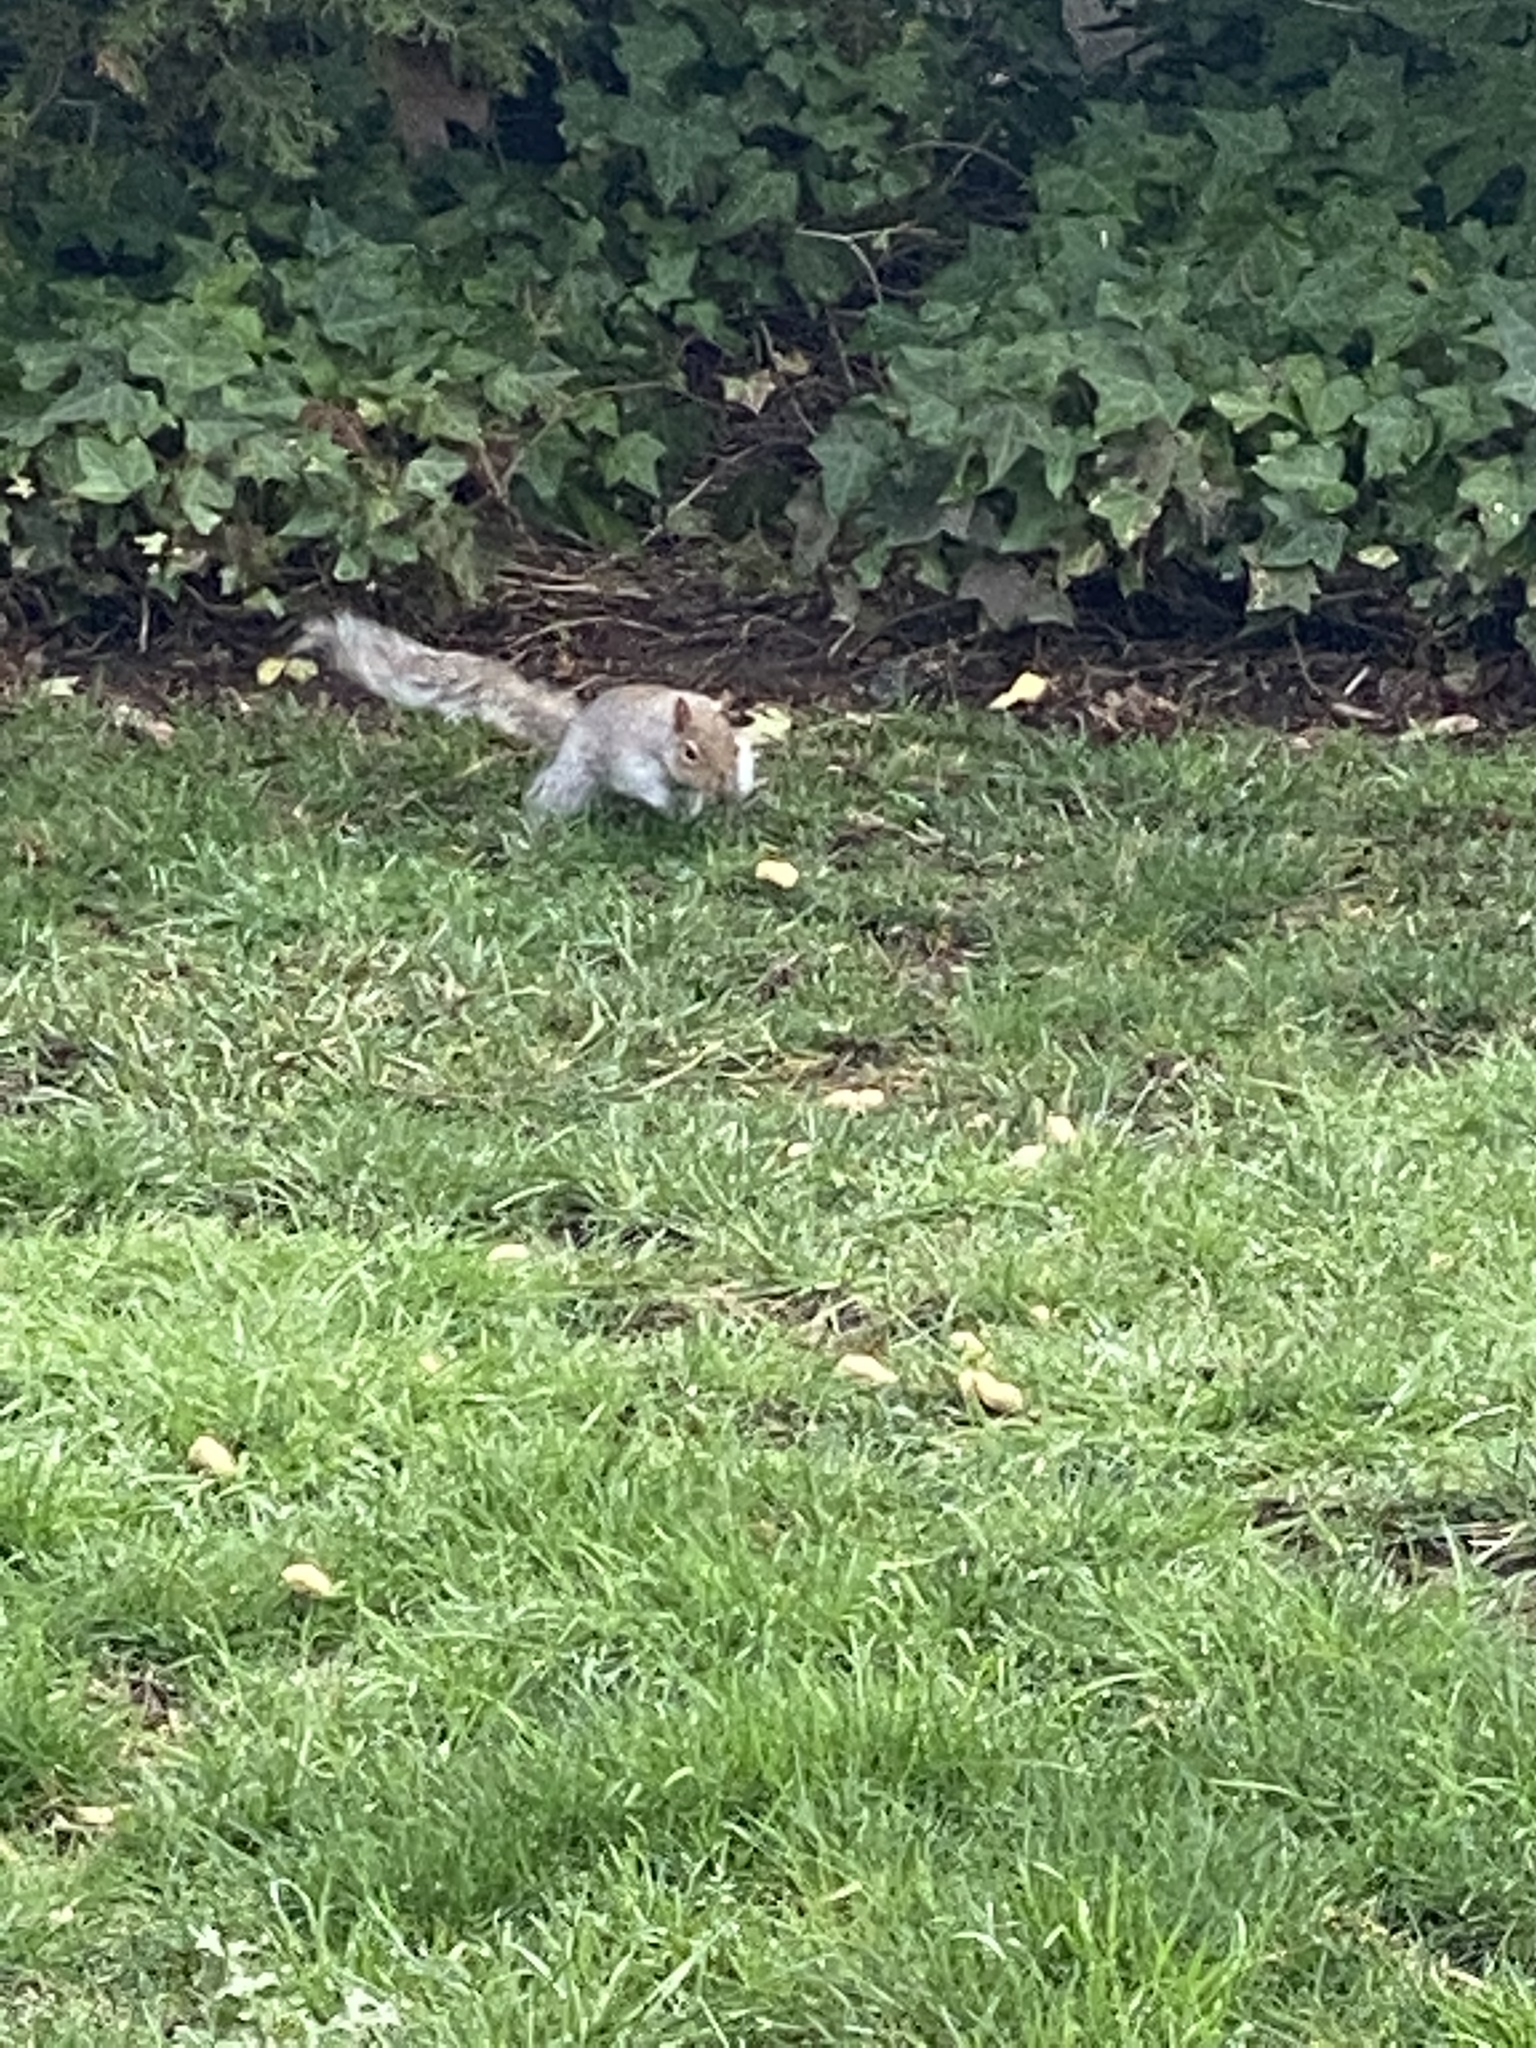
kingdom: Animalia
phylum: Chordata
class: Mammalia
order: Rodentia
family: Sciuridae
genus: Sciurus
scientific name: Sciurus carolinensis
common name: Eastern gray squirrel
